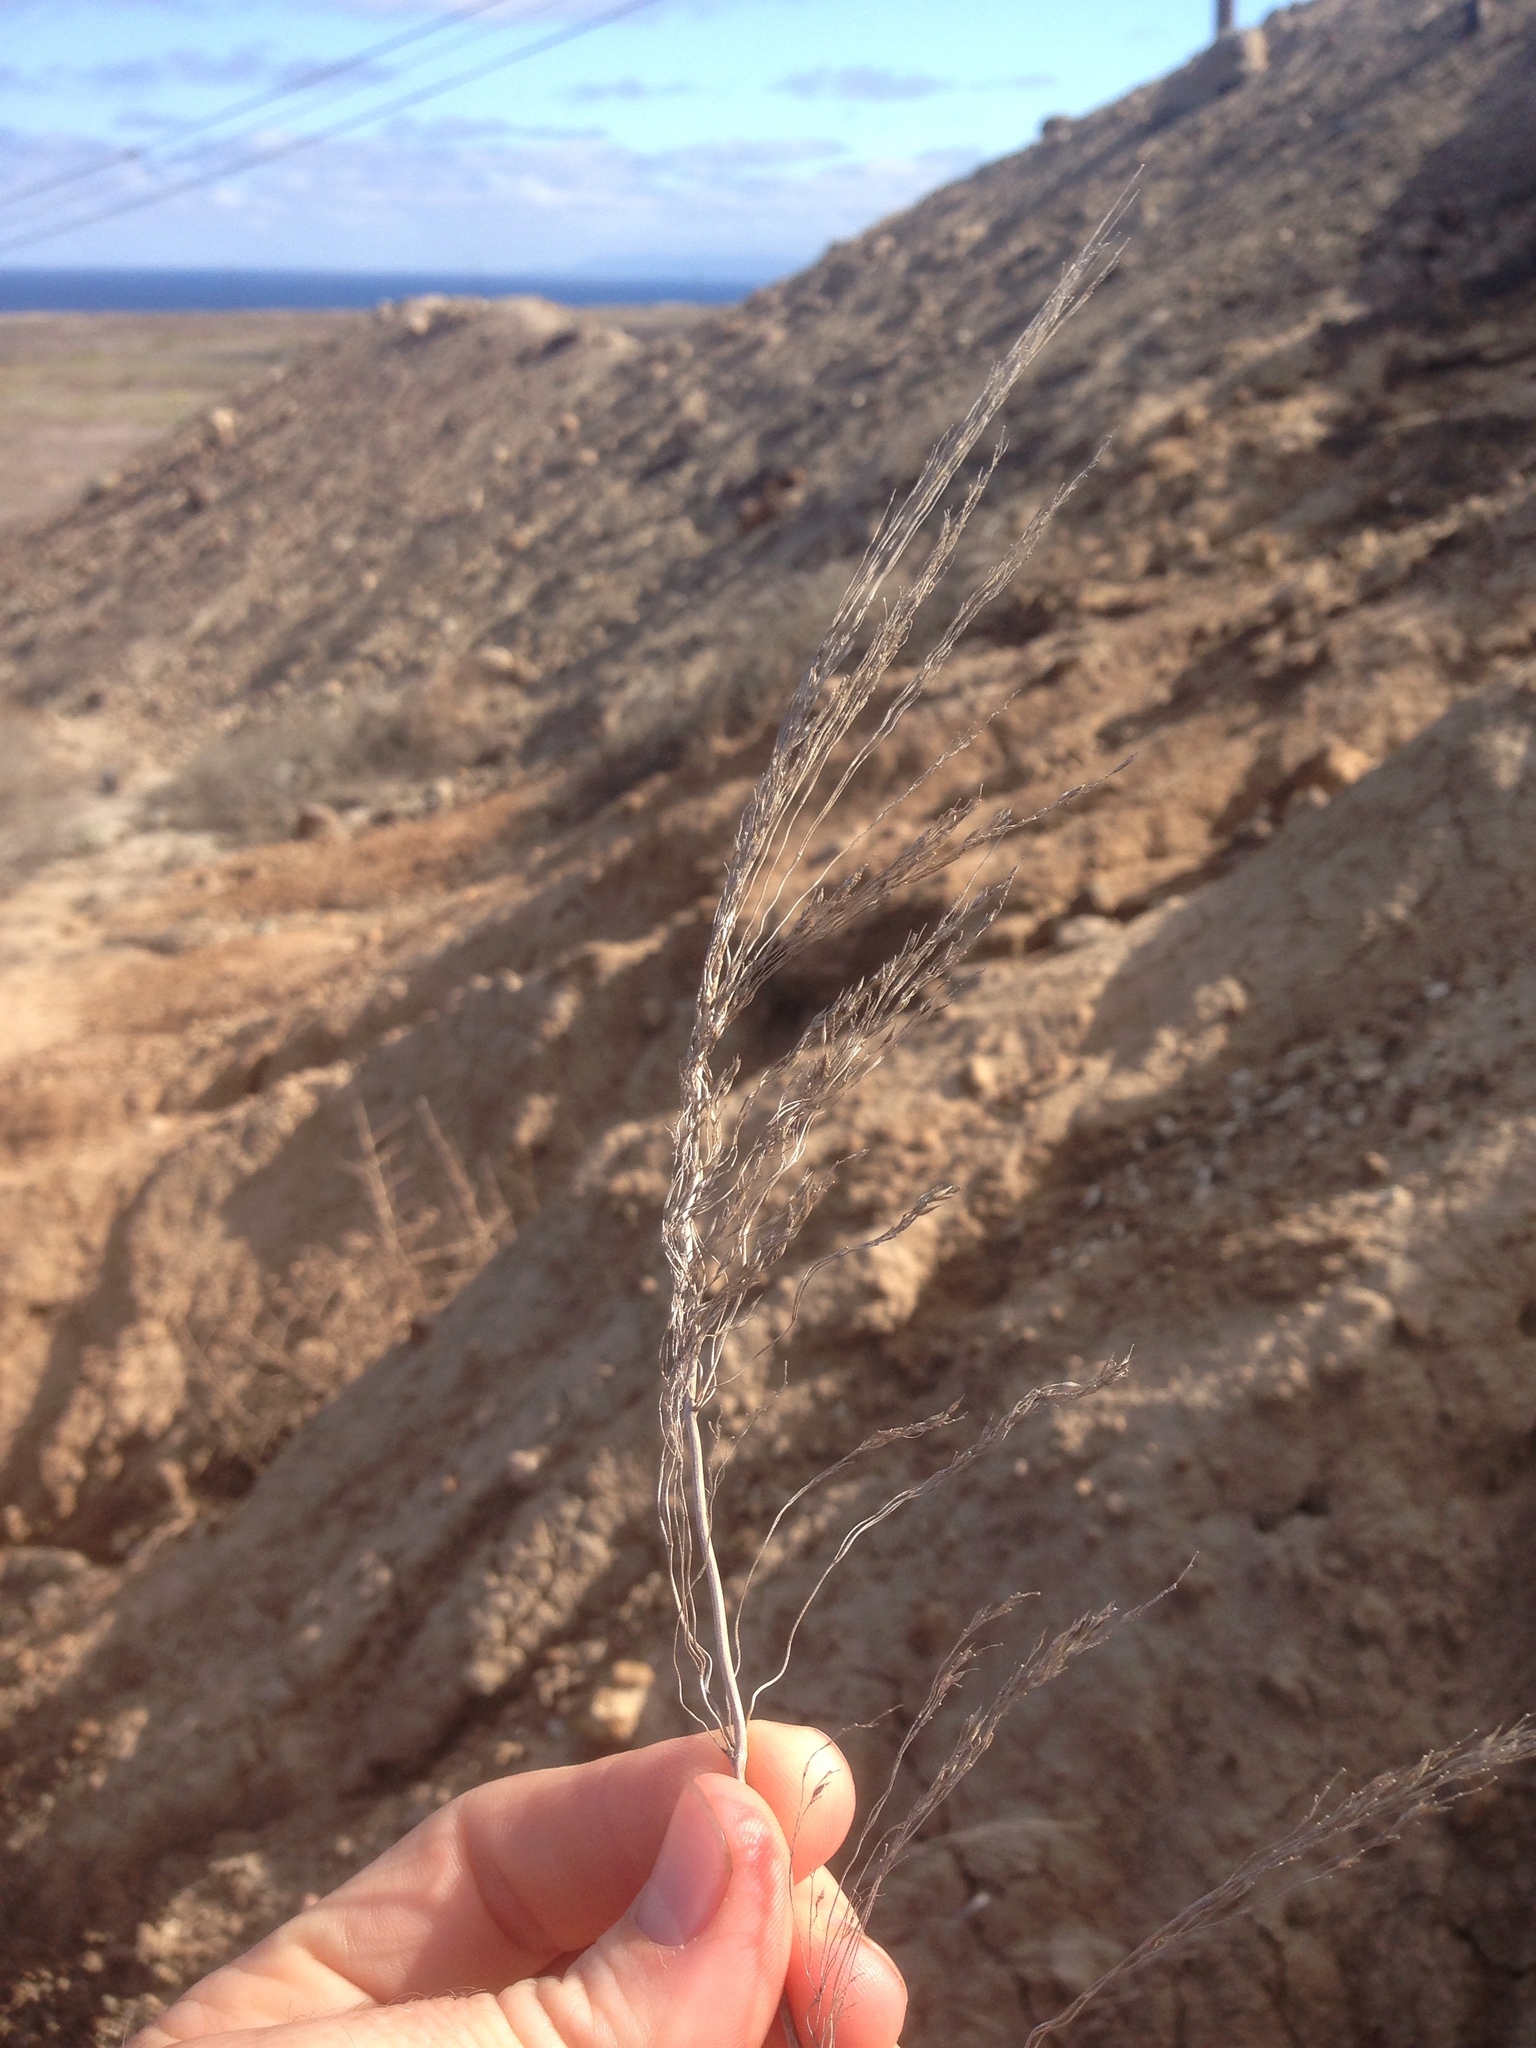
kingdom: Plantae
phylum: Tracheophyta
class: Liliopsida
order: Poales
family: Poaceae
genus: Oloptum
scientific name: Oloptum miliaceum
